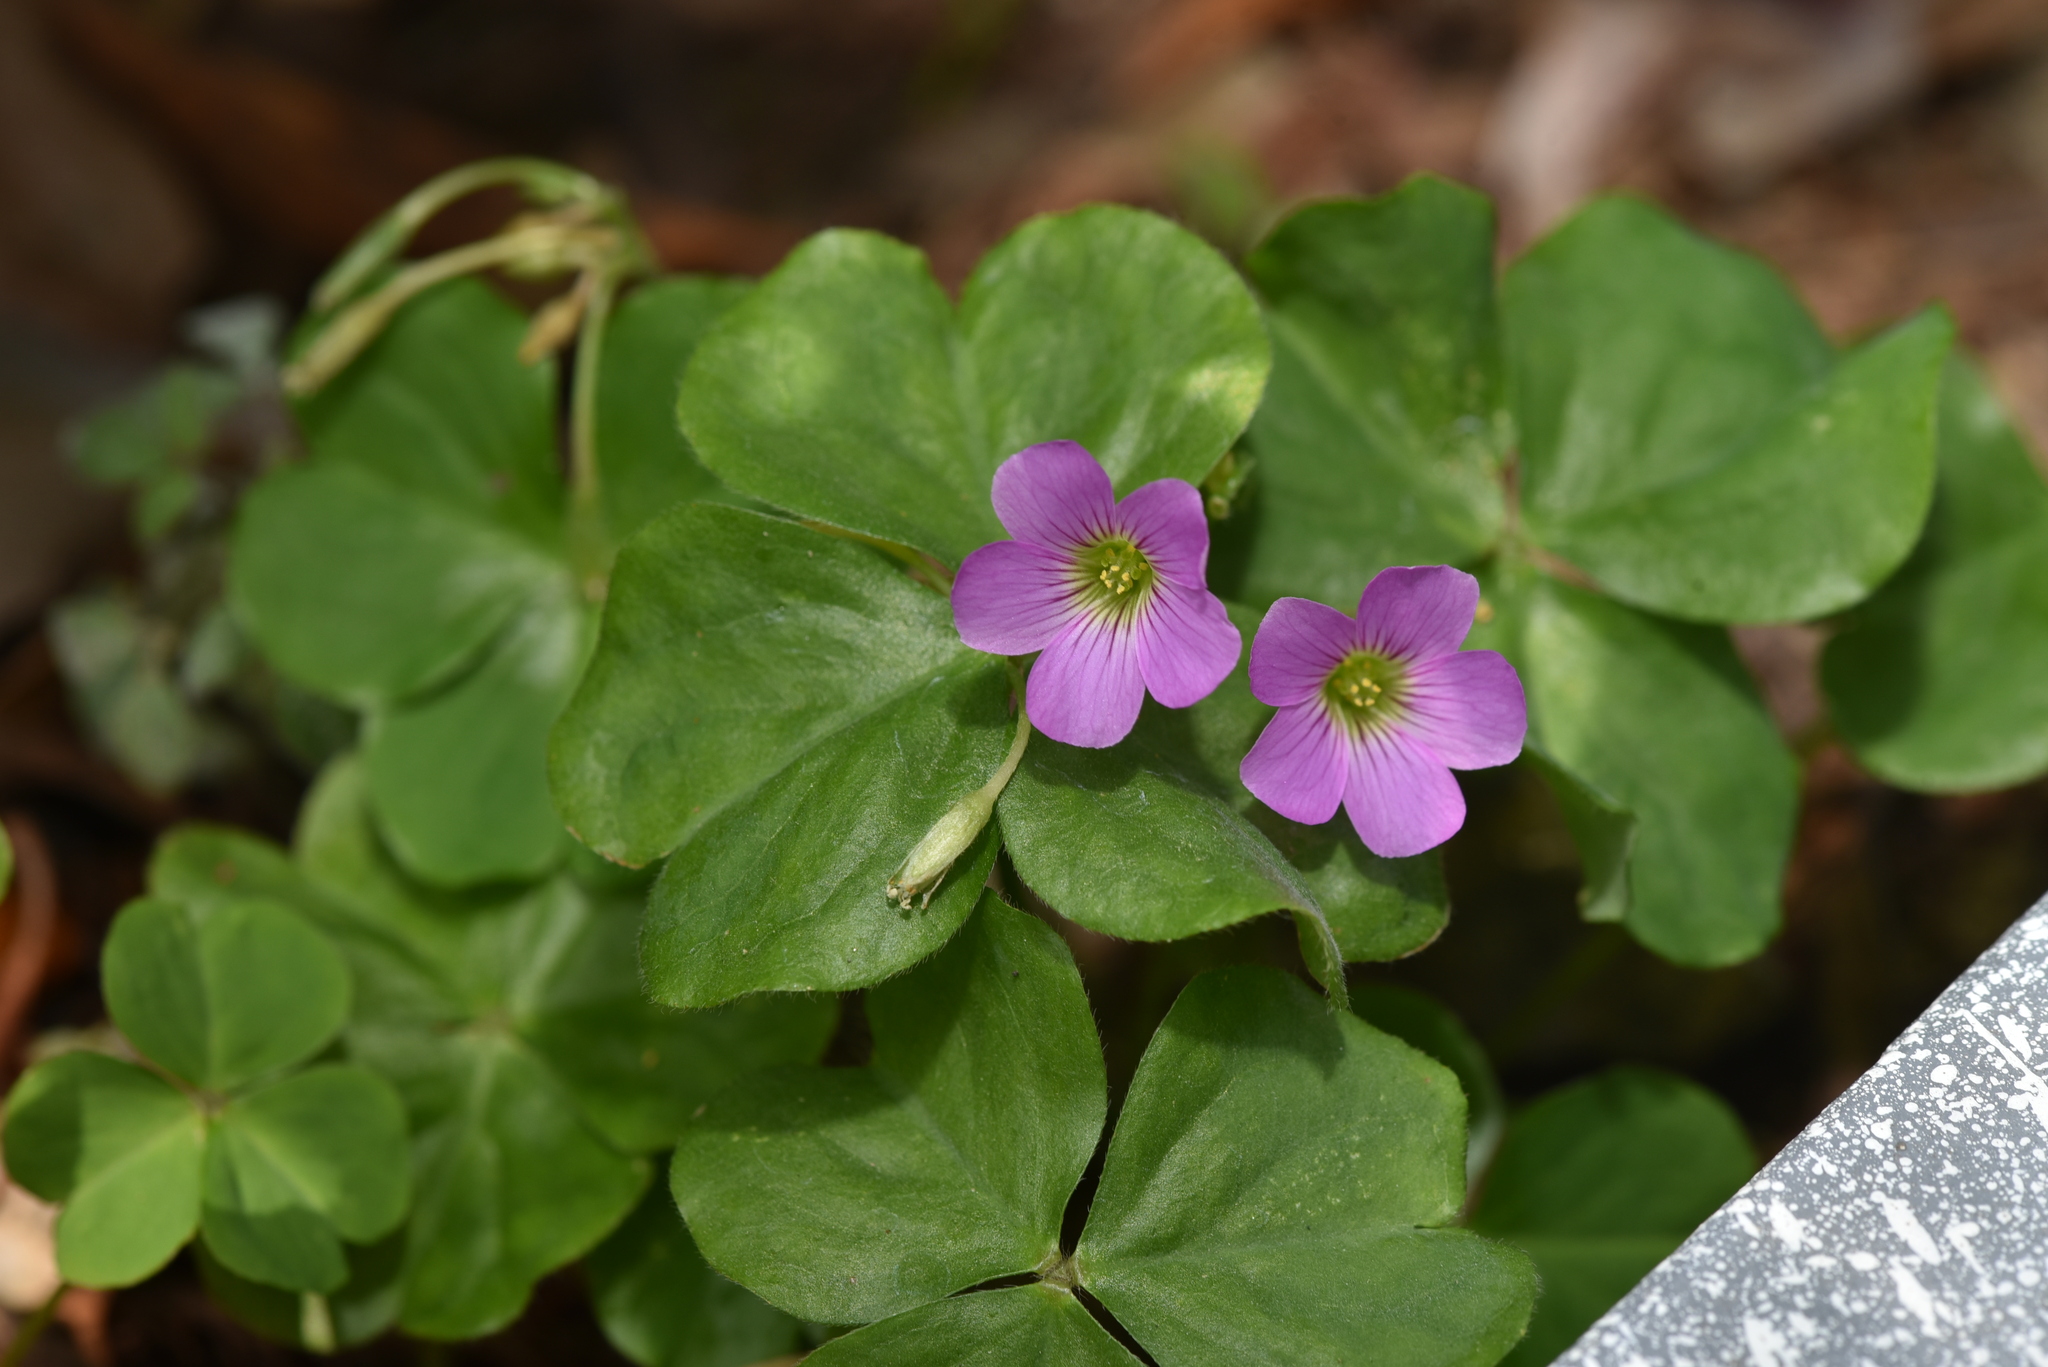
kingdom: Plantae
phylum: Tracheophyta
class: Magnoliopsida
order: Oxalidales
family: Oxalidaceae
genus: Oxalis
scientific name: Oxalis debilis
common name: Large-flowered pink-sorrel
